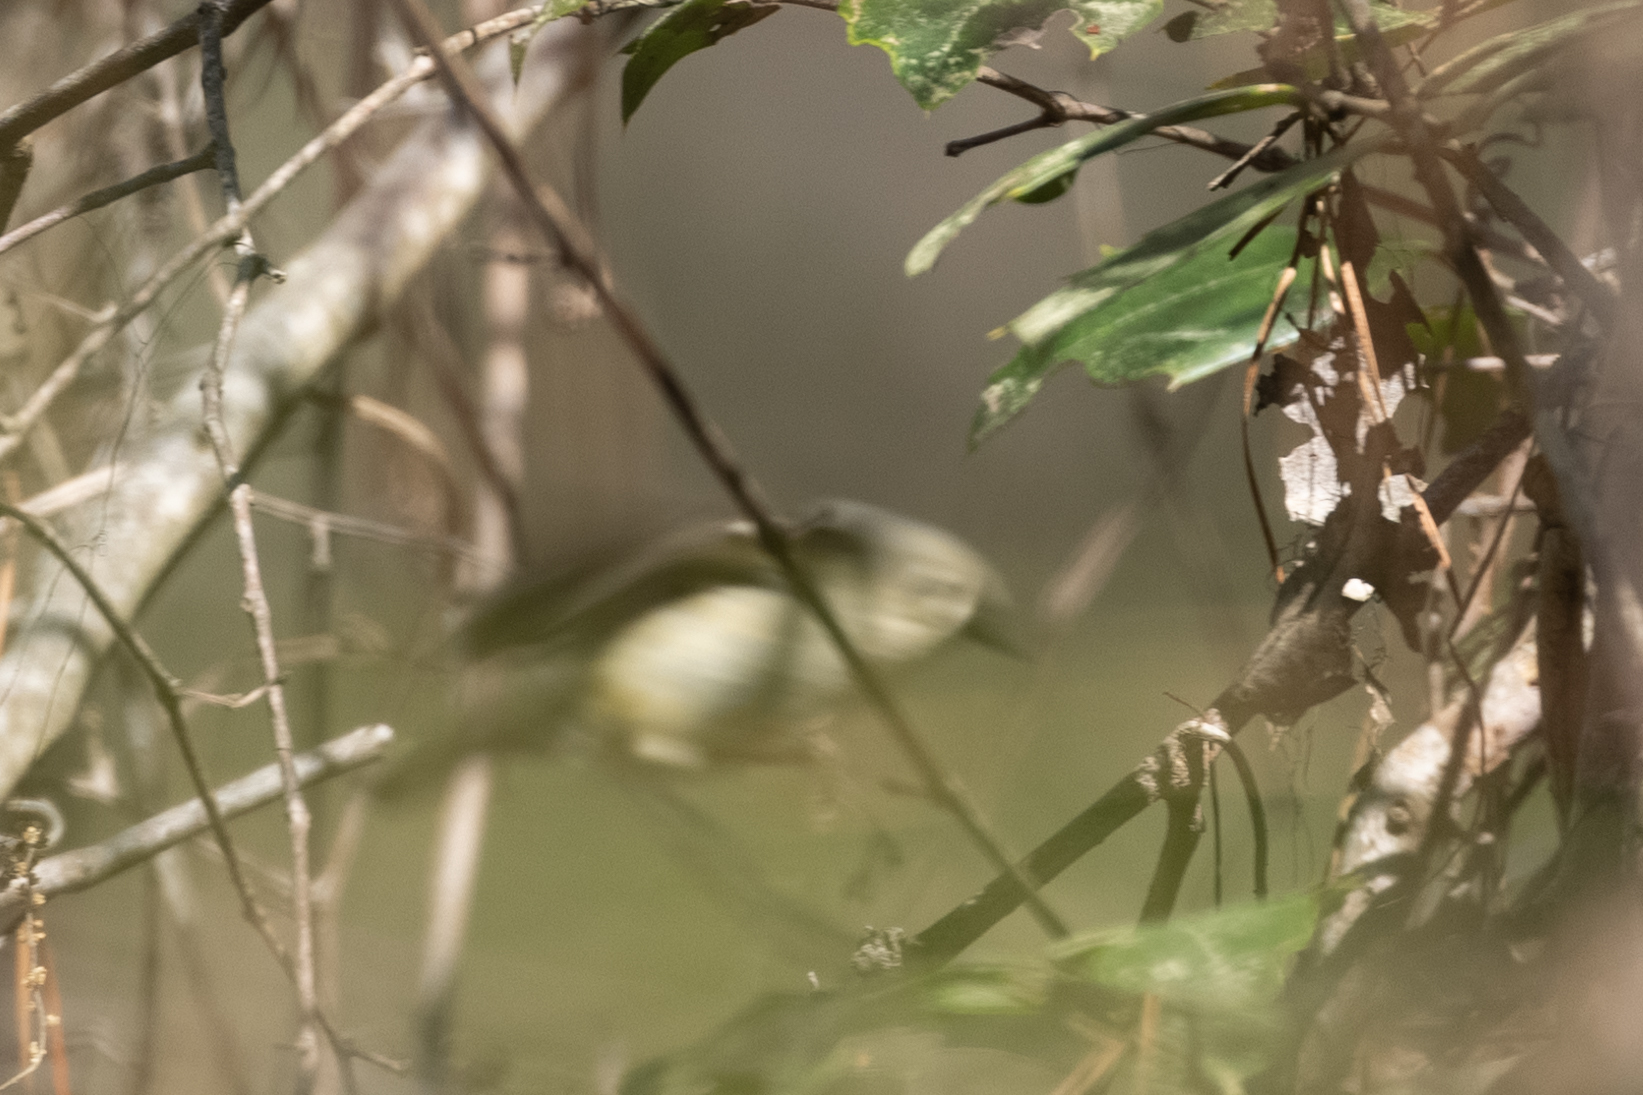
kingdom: Animalia
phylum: Chordata
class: Aves
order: Passeriformes
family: Regulidae
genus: Regulus
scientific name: Regulus calendula
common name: Ruby-crowned kinglet
